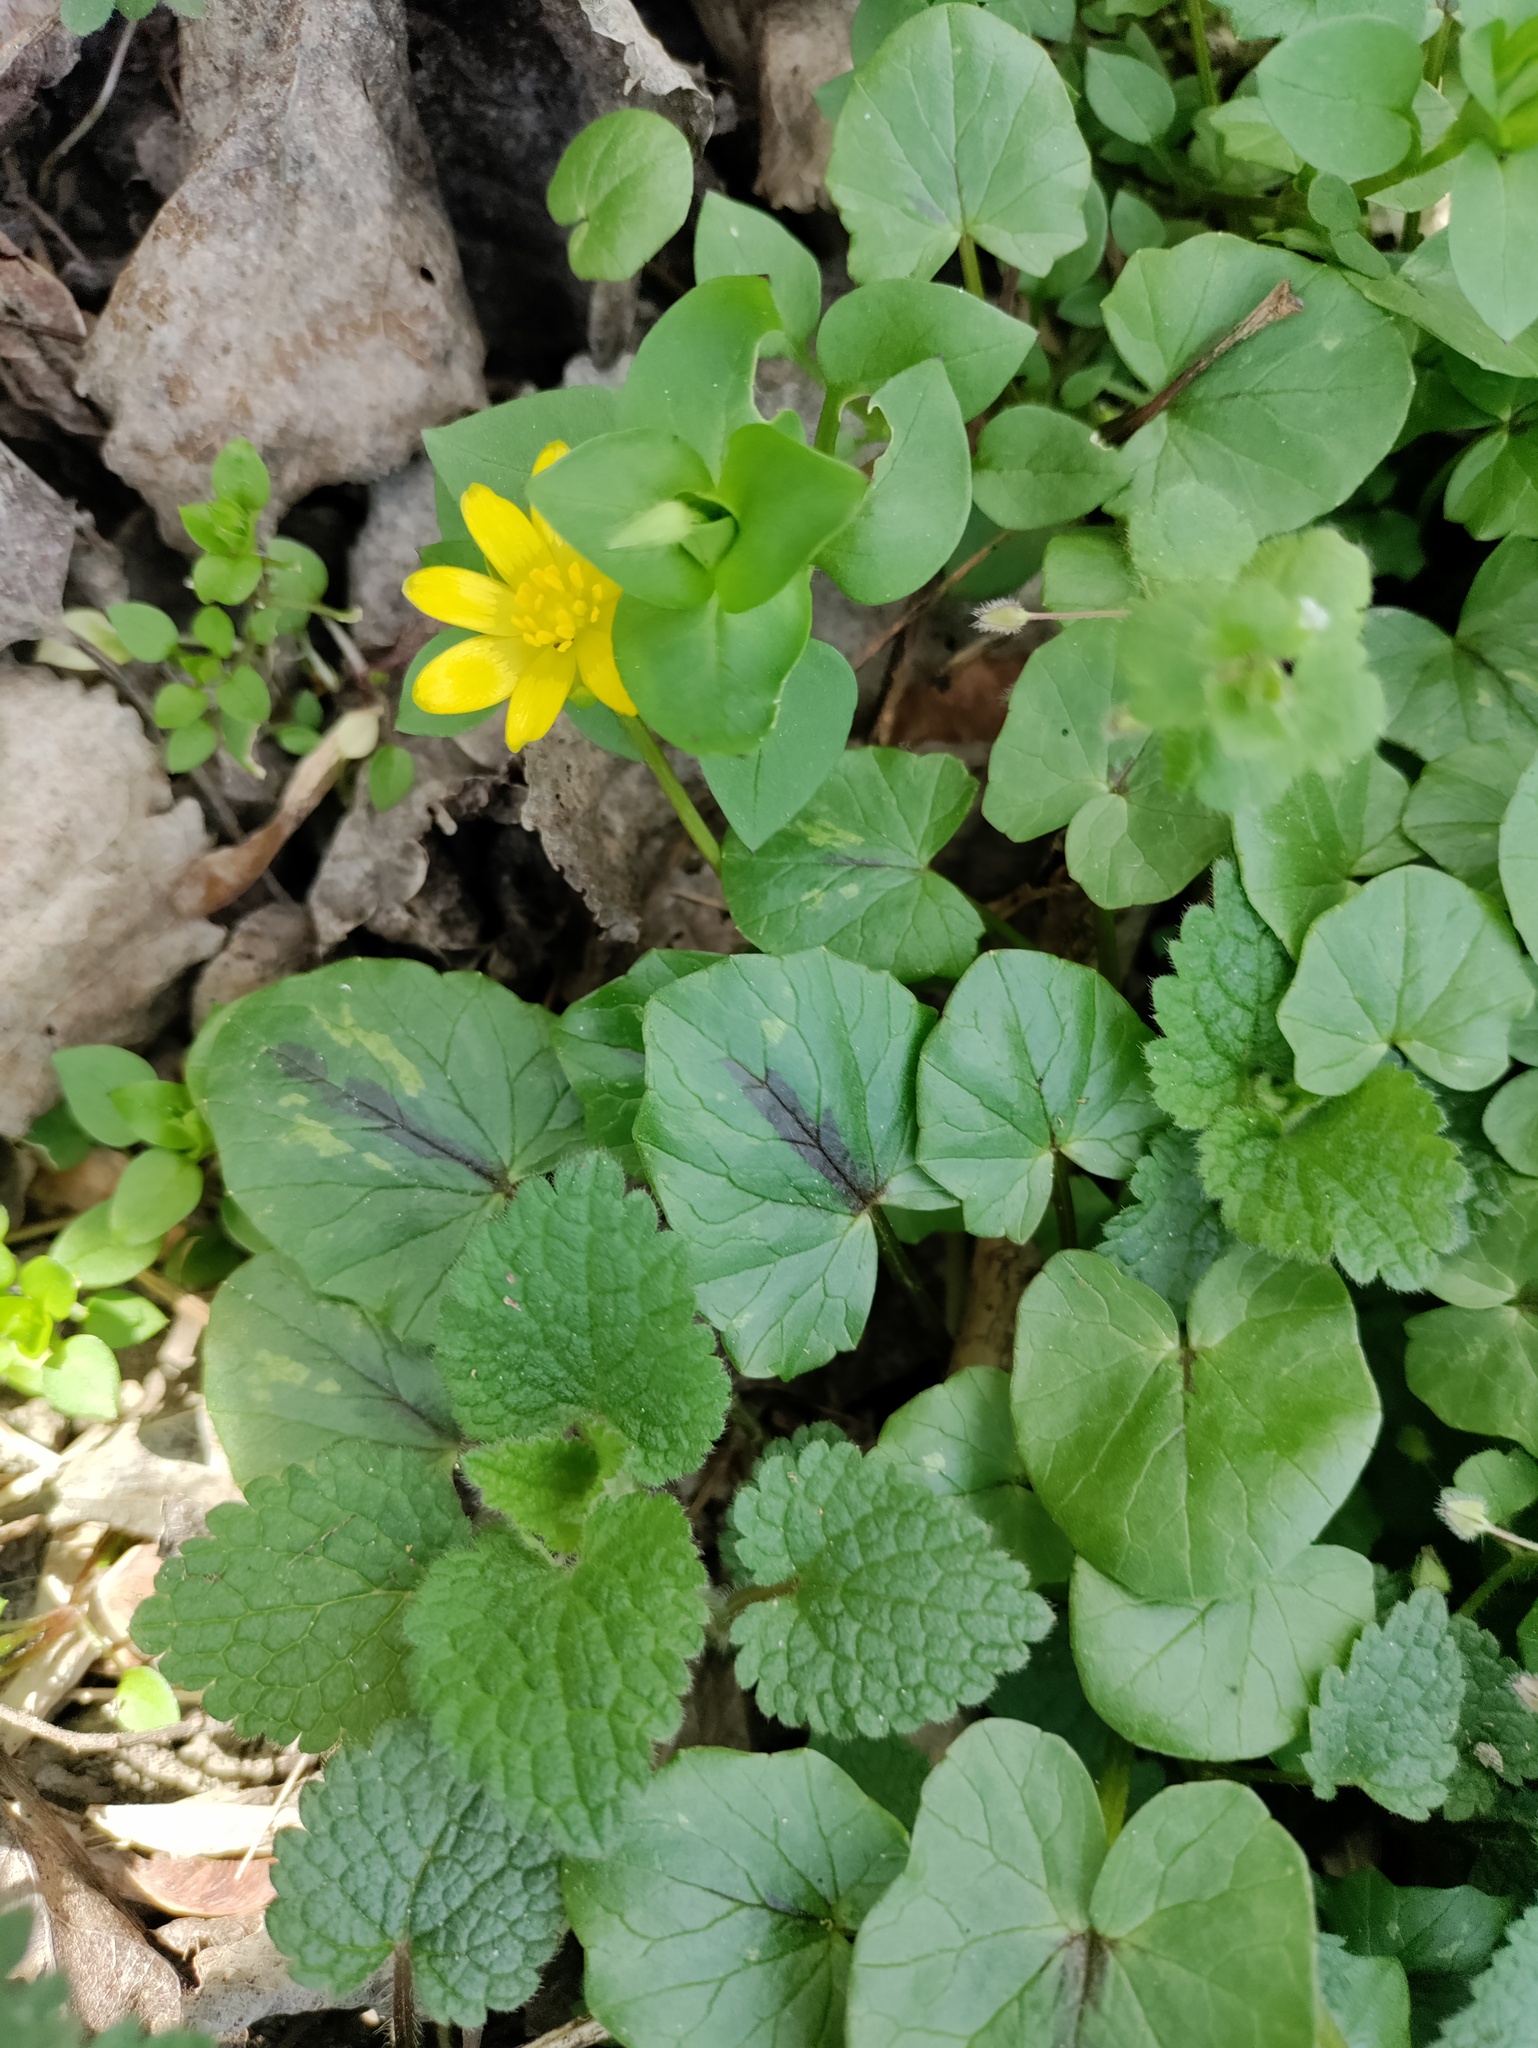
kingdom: Plantae
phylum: Tracheophyta
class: Magnoliopsida
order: Ranunculales
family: Ranunculaceae
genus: Ficaria
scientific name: Ficaria verna
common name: Lesser celandine
